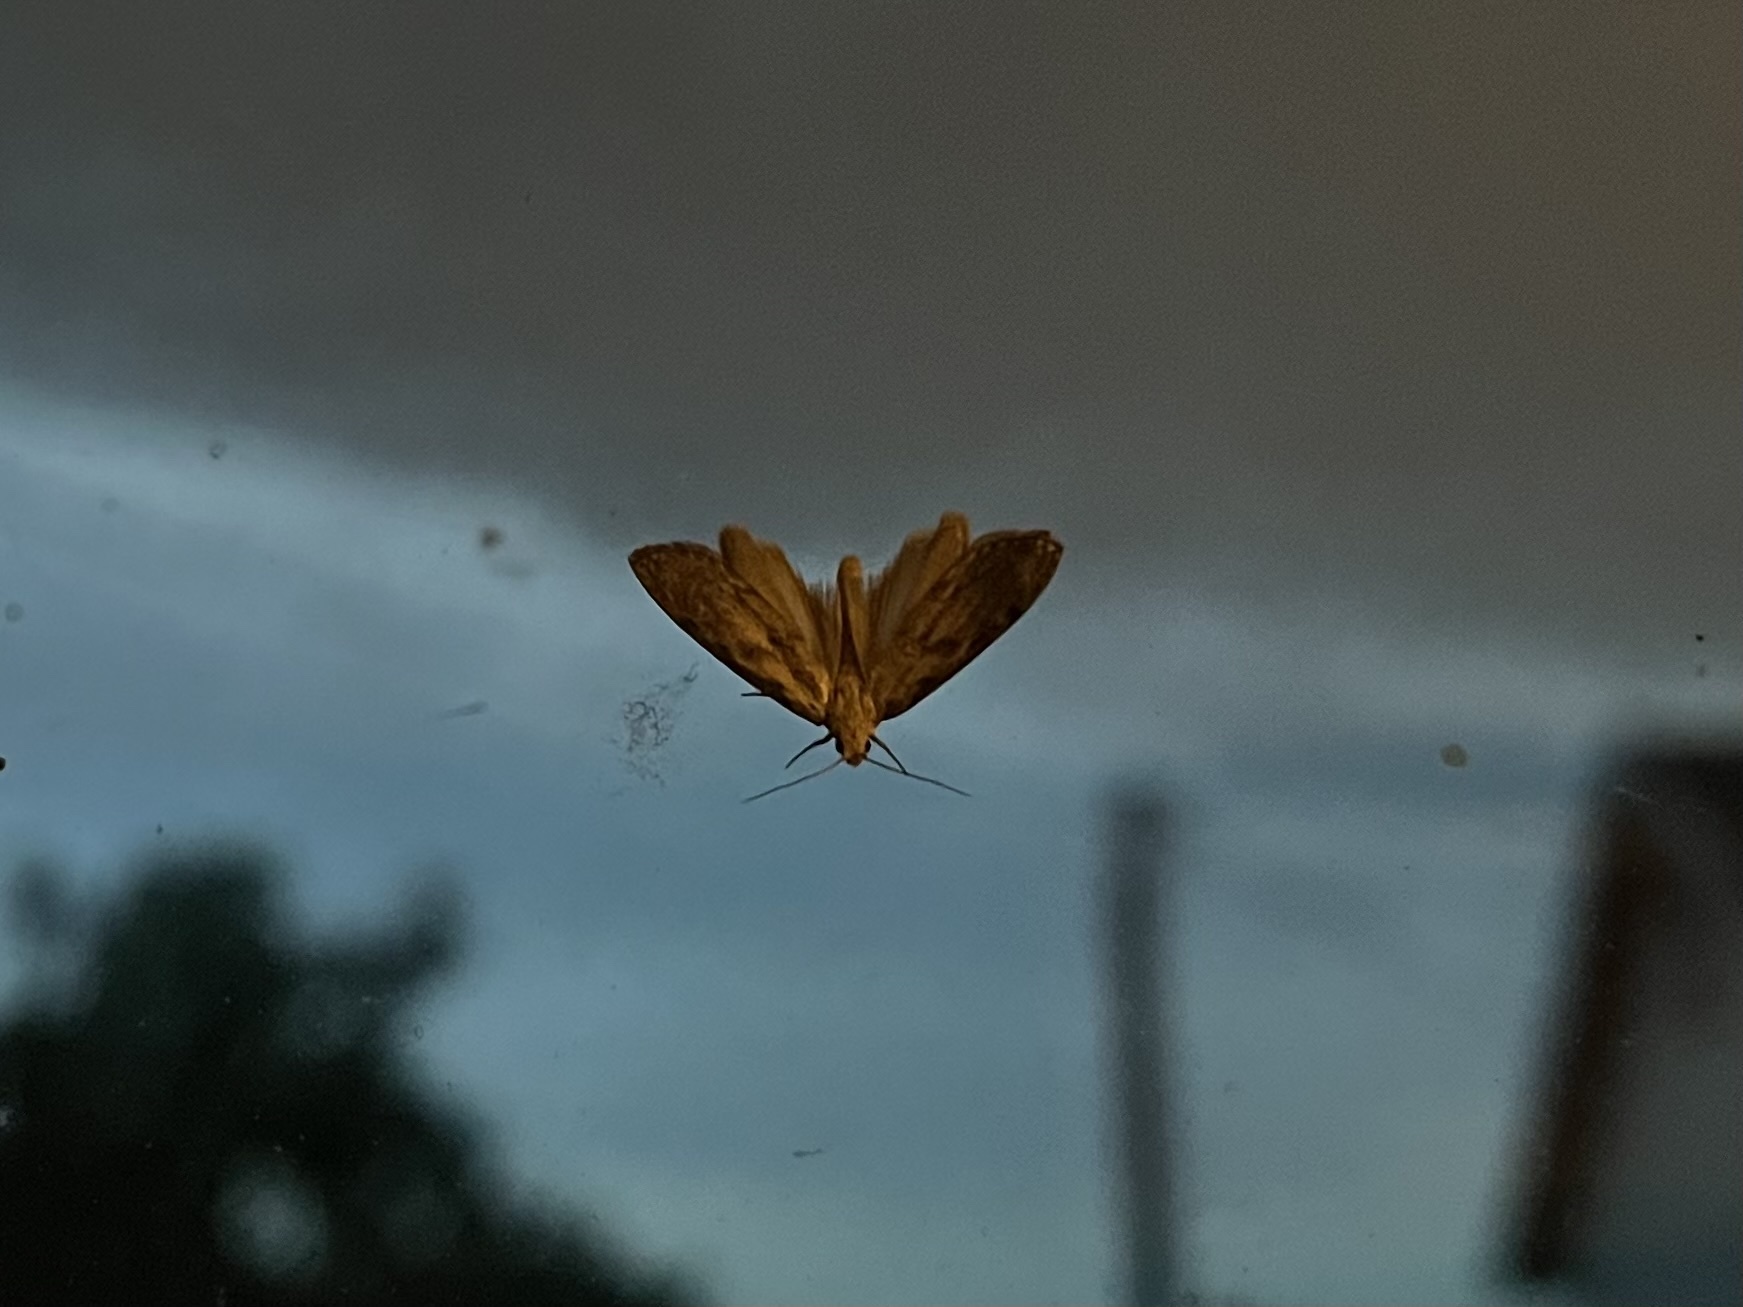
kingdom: Animalia
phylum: Arthropoda
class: Insecta
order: Lepidoptera
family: Pyralidae
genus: Aphomia
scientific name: Aphomia sociella
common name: Bee moth
